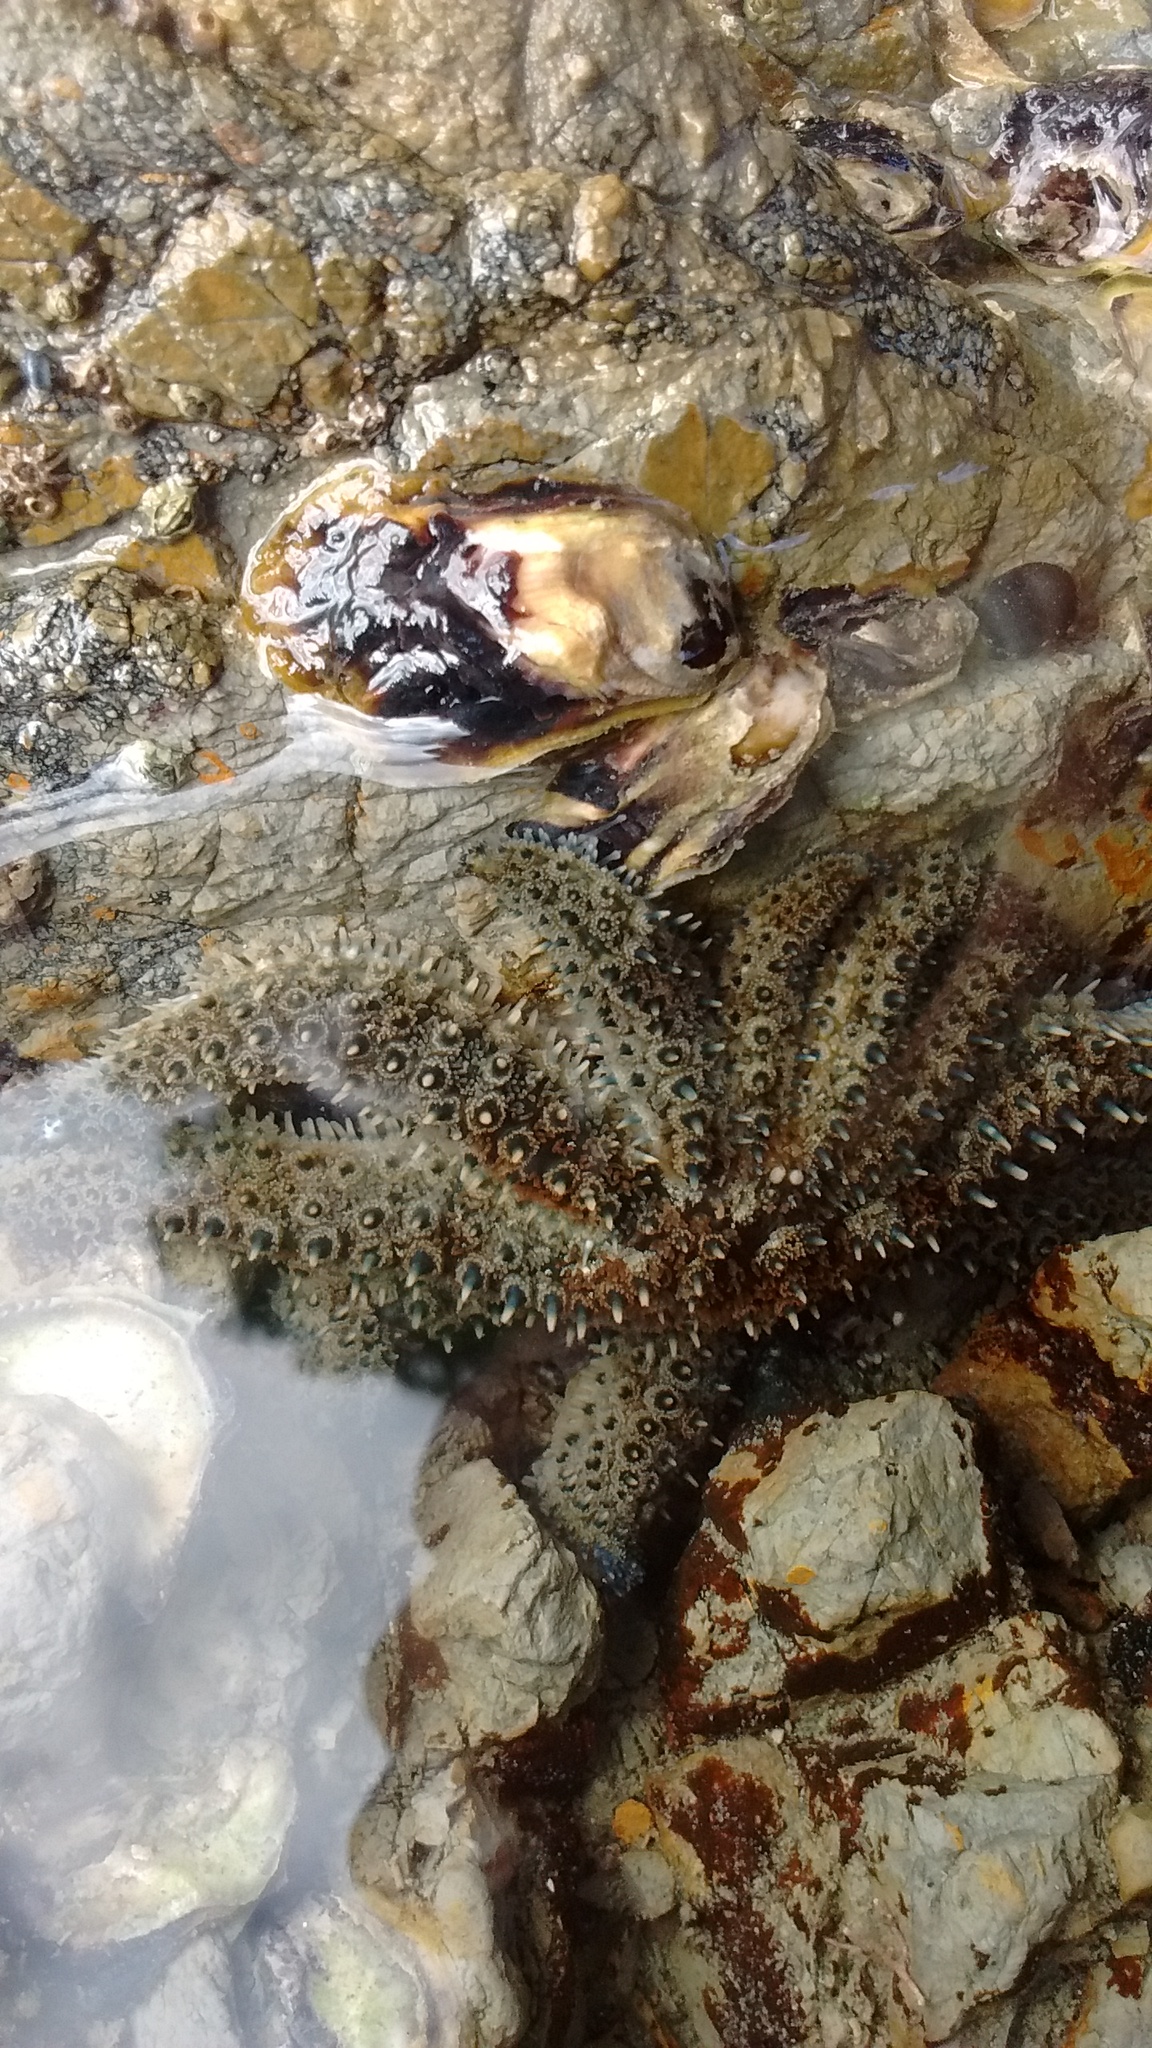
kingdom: Animalia
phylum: Echinodermata
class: Asteroidea
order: Forcipulatida
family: Asteriidae
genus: Coscinasterias
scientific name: Coscinasterias muricata
